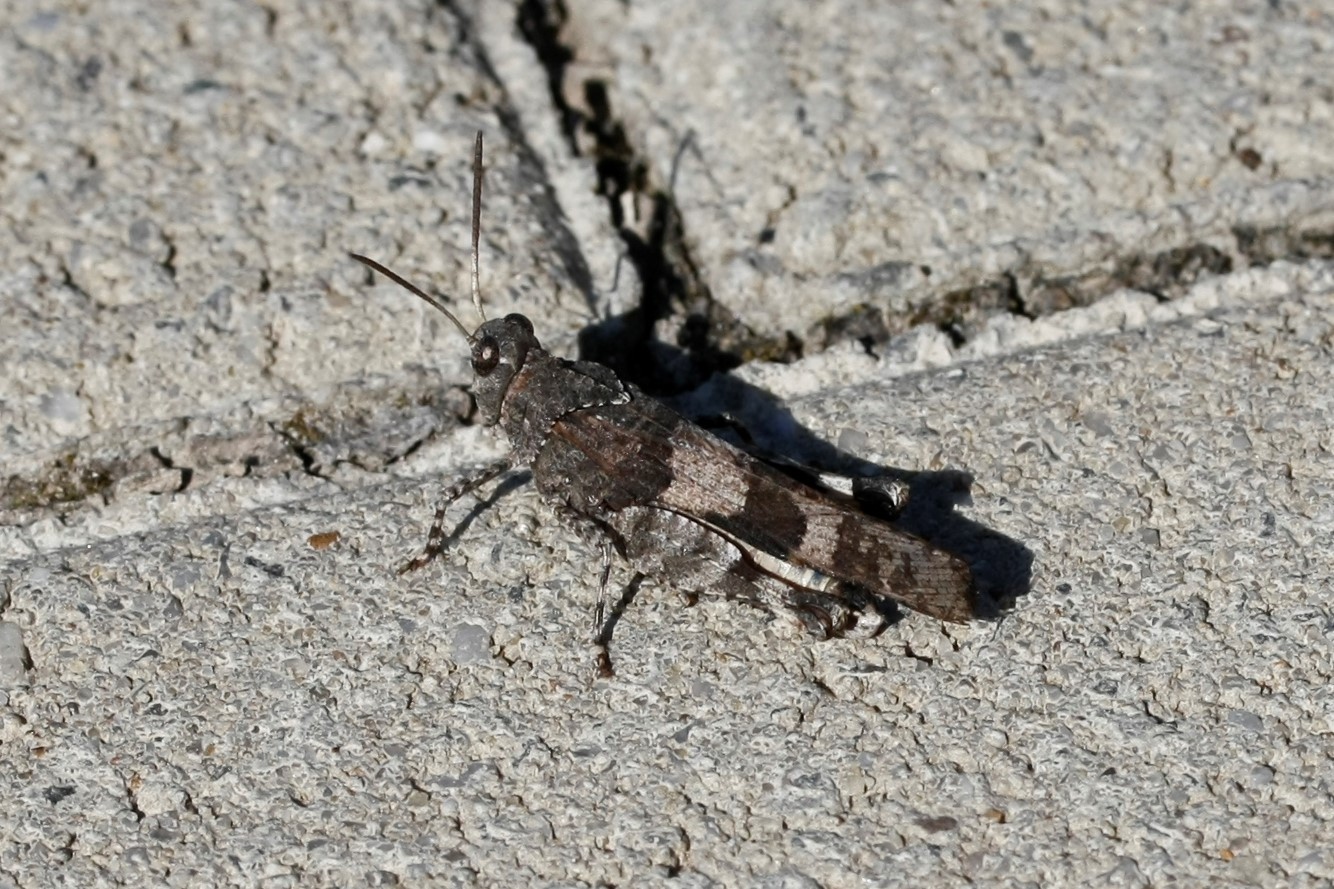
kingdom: Animalia
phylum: Arthropoda
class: Insecta
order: Orthoptera
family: Acrididae
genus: Oedipoda
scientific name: Oedipoda caerulescens
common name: Blue-winged grasshopper
